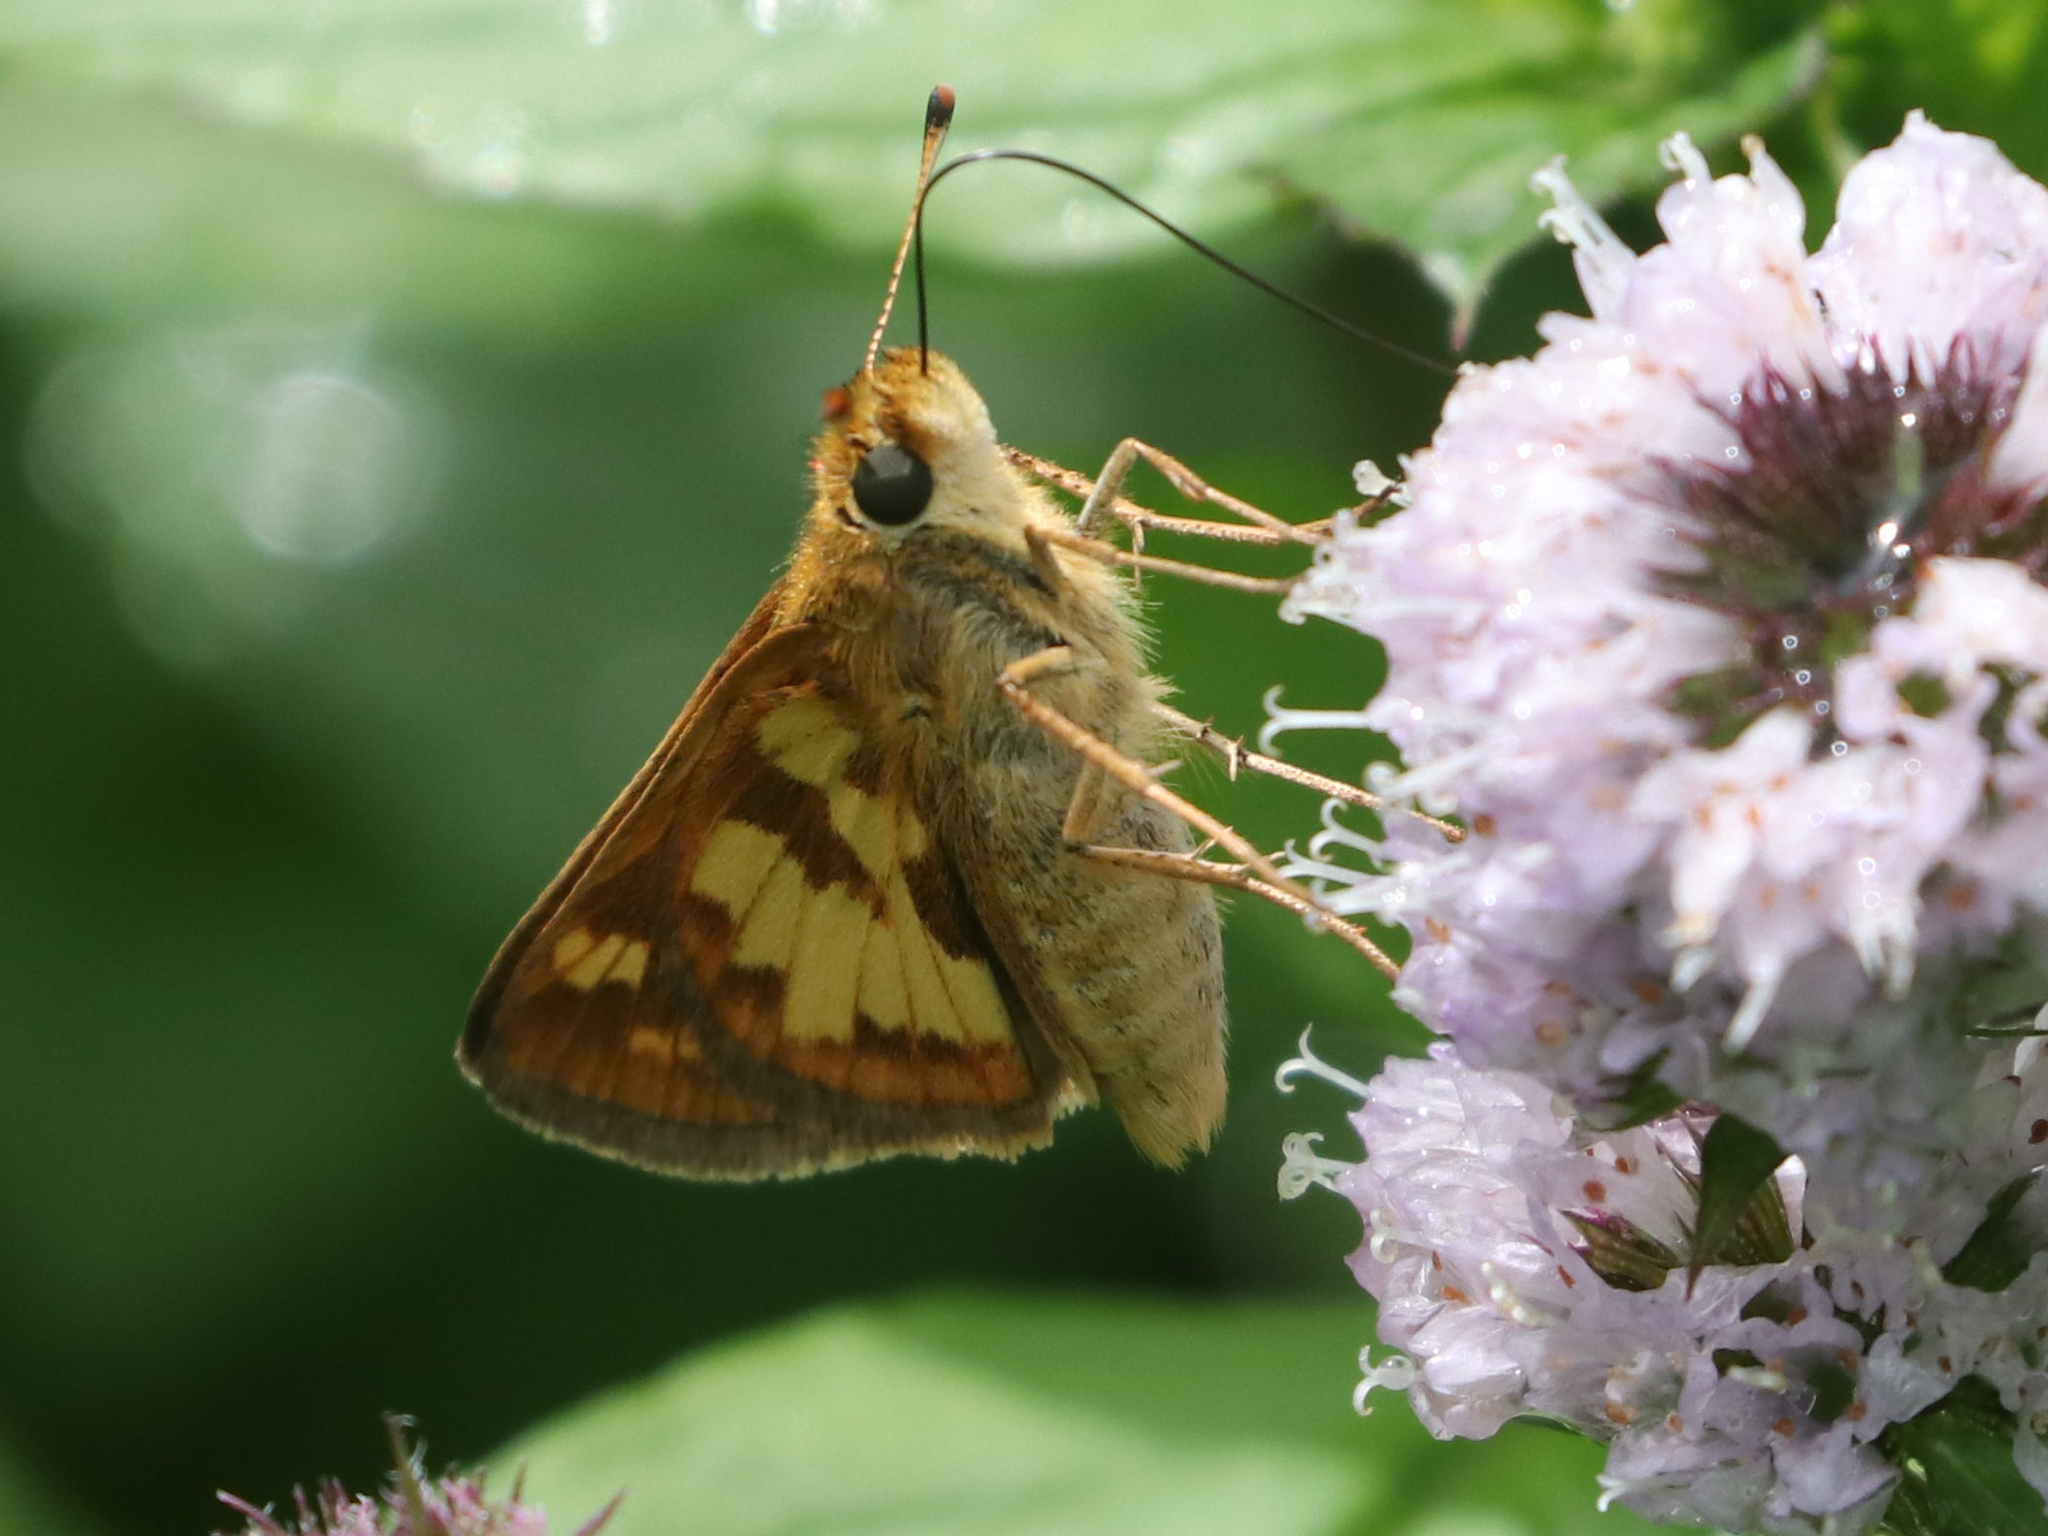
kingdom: Animalia
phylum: Arthropoda
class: Insecta
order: Lepidoptera
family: Hesperiidae
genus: Polites
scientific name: Polites coras
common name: Peck's skipper
